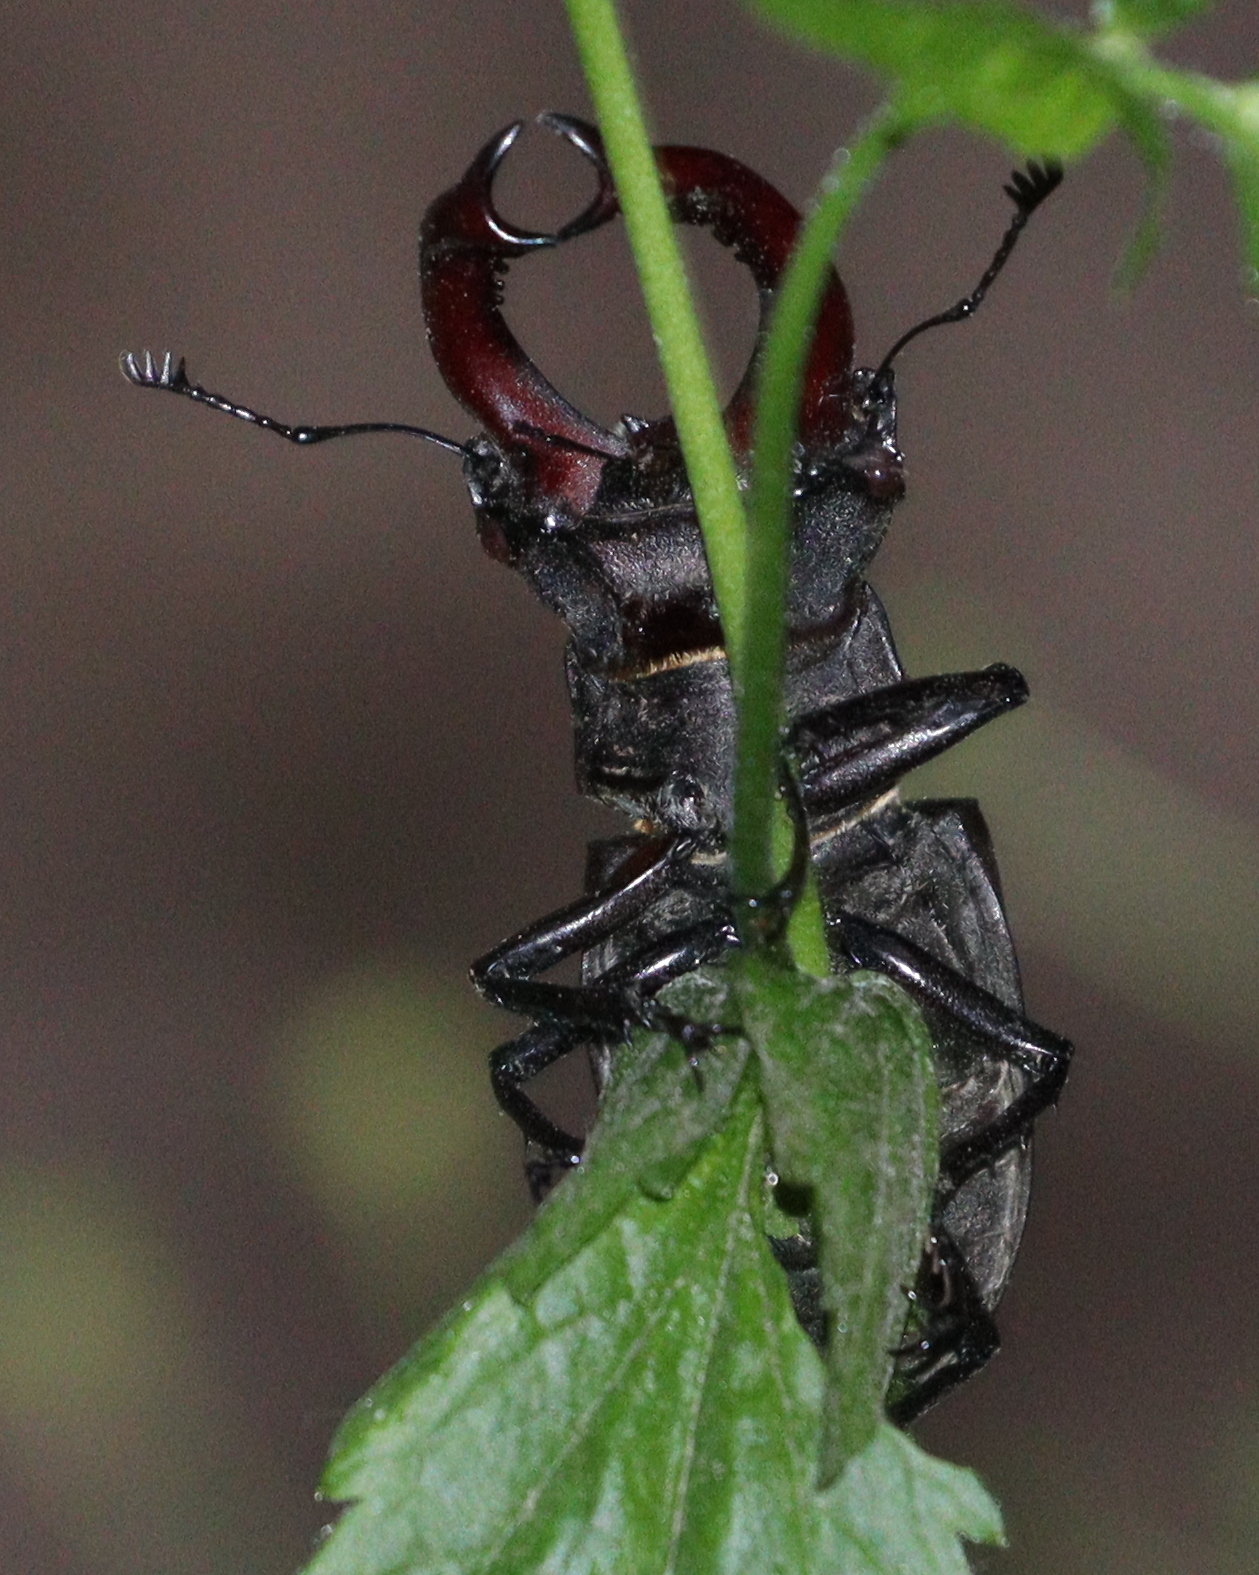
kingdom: Animalia
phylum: Arthropoda
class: Insecta
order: Coleoptera
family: Lucanidae
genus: Lucanus
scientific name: Lucanus cervus
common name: Stag beetle
